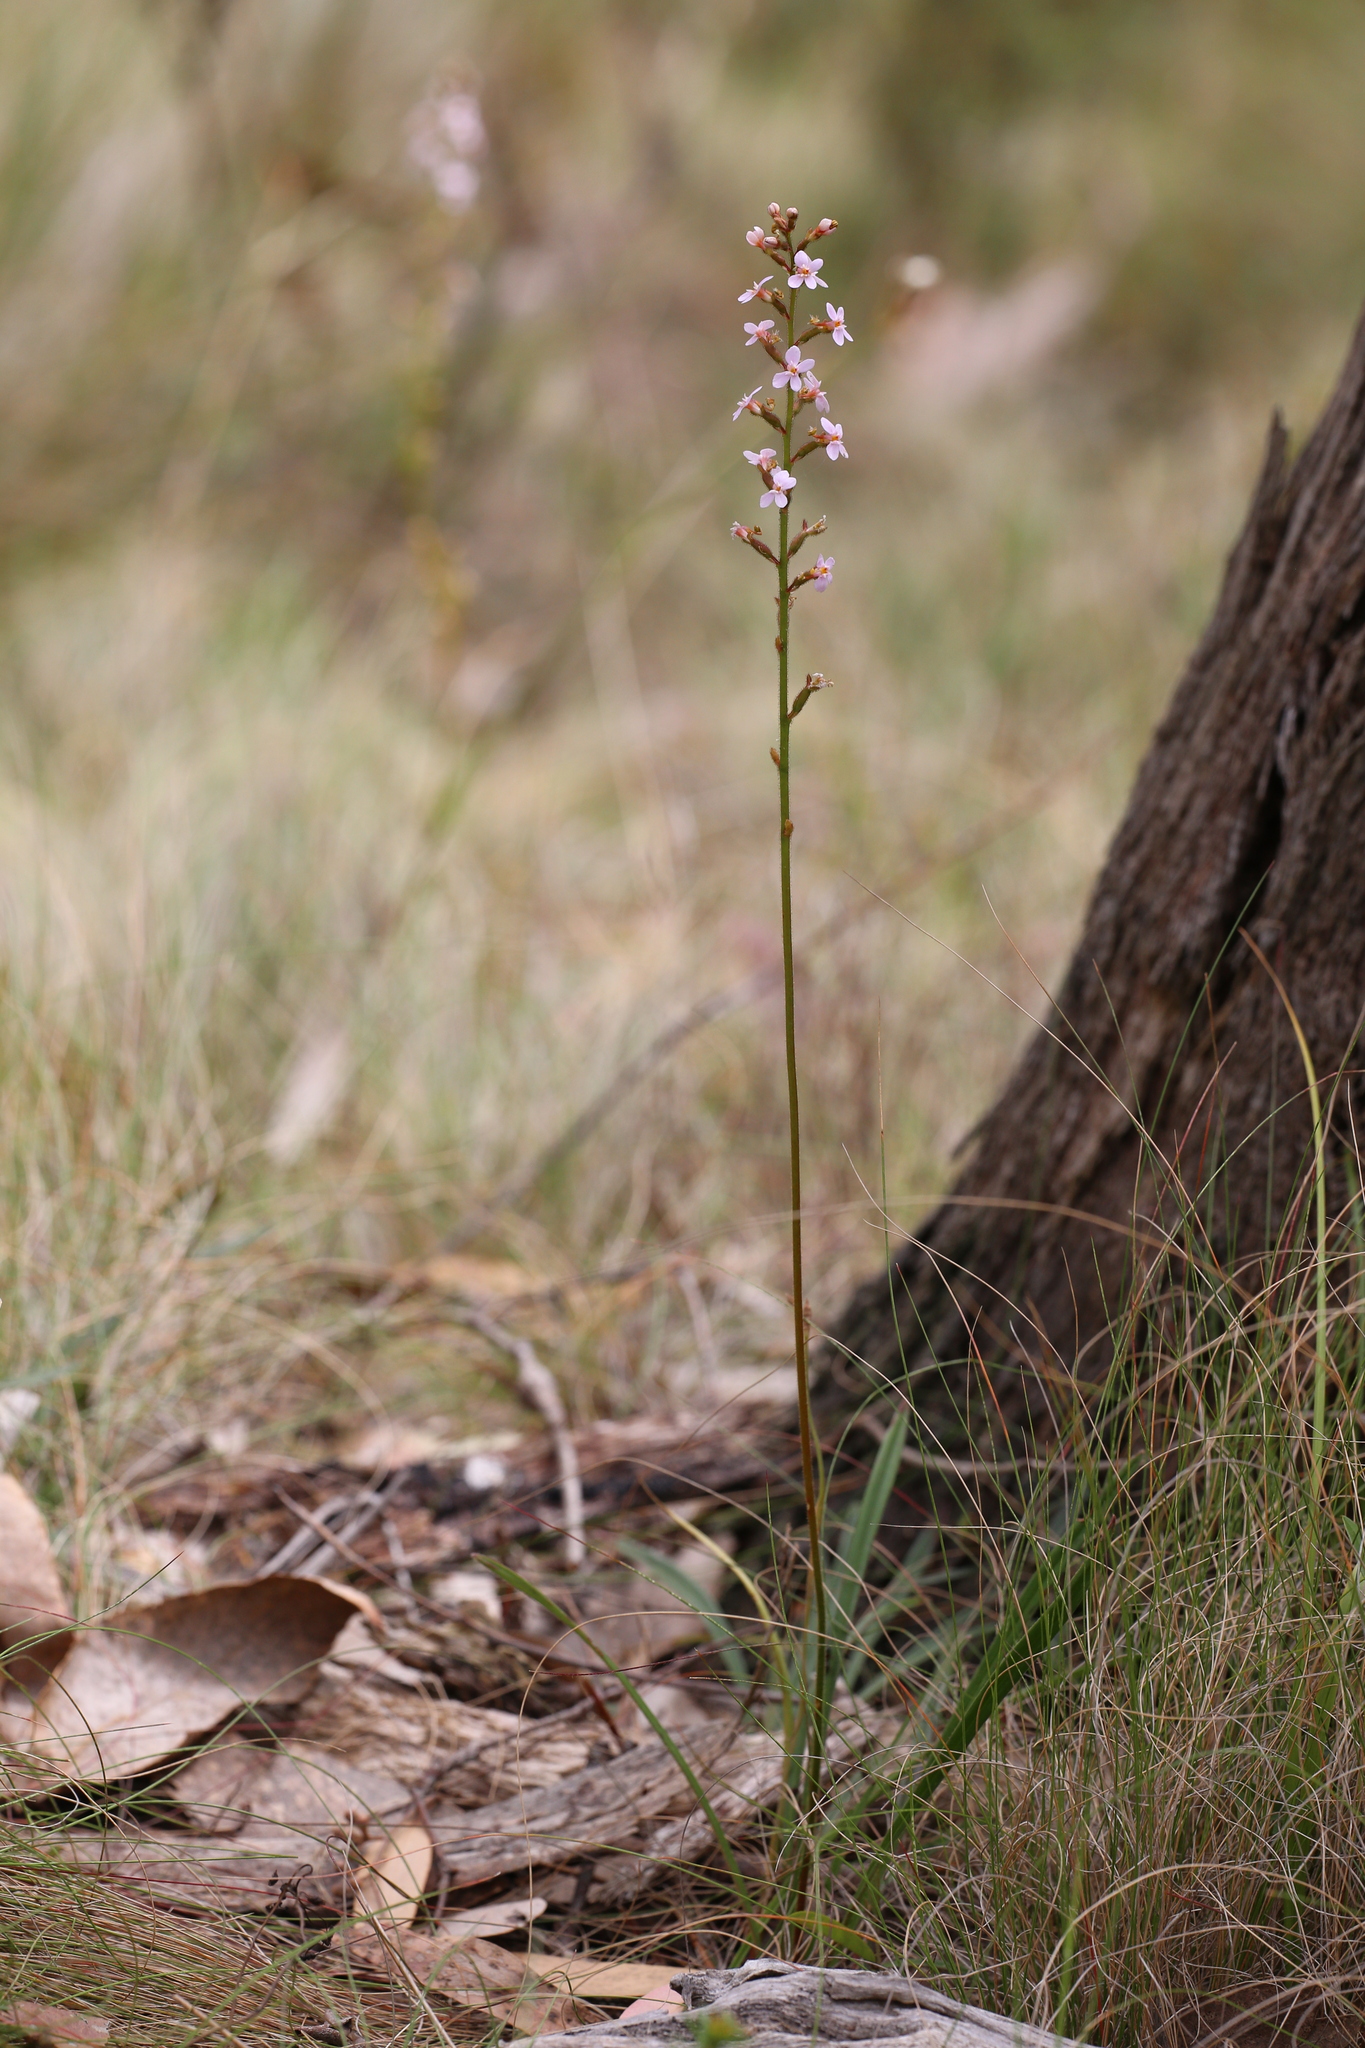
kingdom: Plantae
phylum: Tracheophyta
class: Magnoliopsida
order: Asterales
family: Stylidiaceae
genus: Stylidium
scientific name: Stylidium armeria
